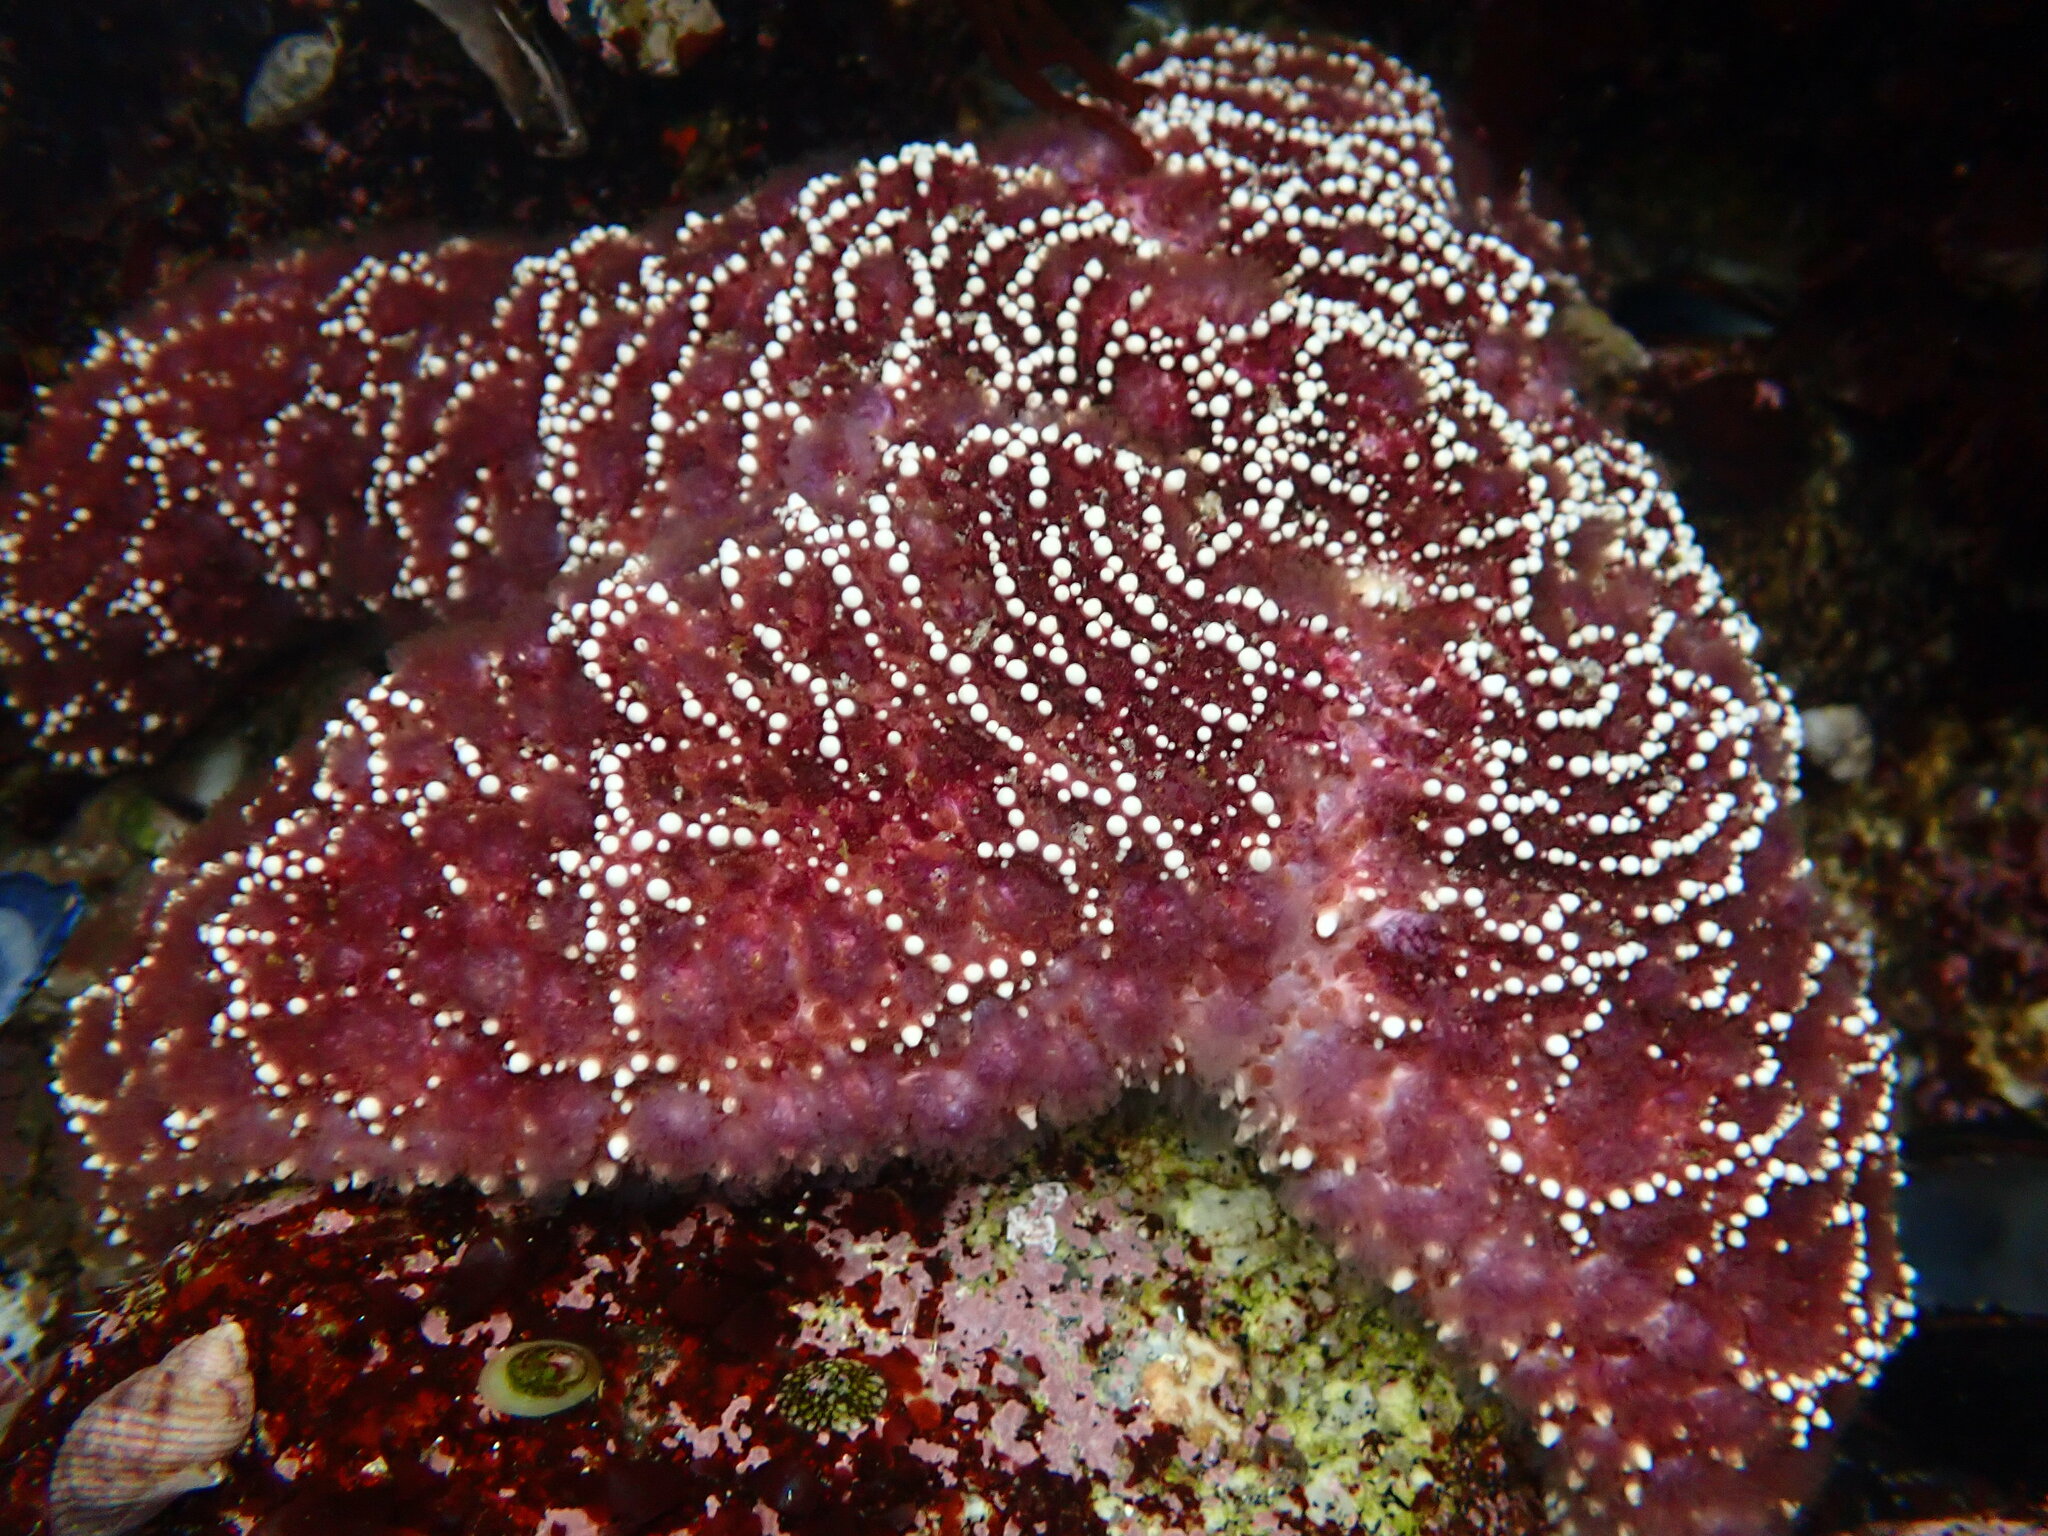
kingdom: Animalia
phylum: Echinodermata
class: Asteroidea
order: Forcipulatida
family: Asteriidae
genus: Pisaster
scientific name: Pisaster ochraceus
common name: Ochre stars
